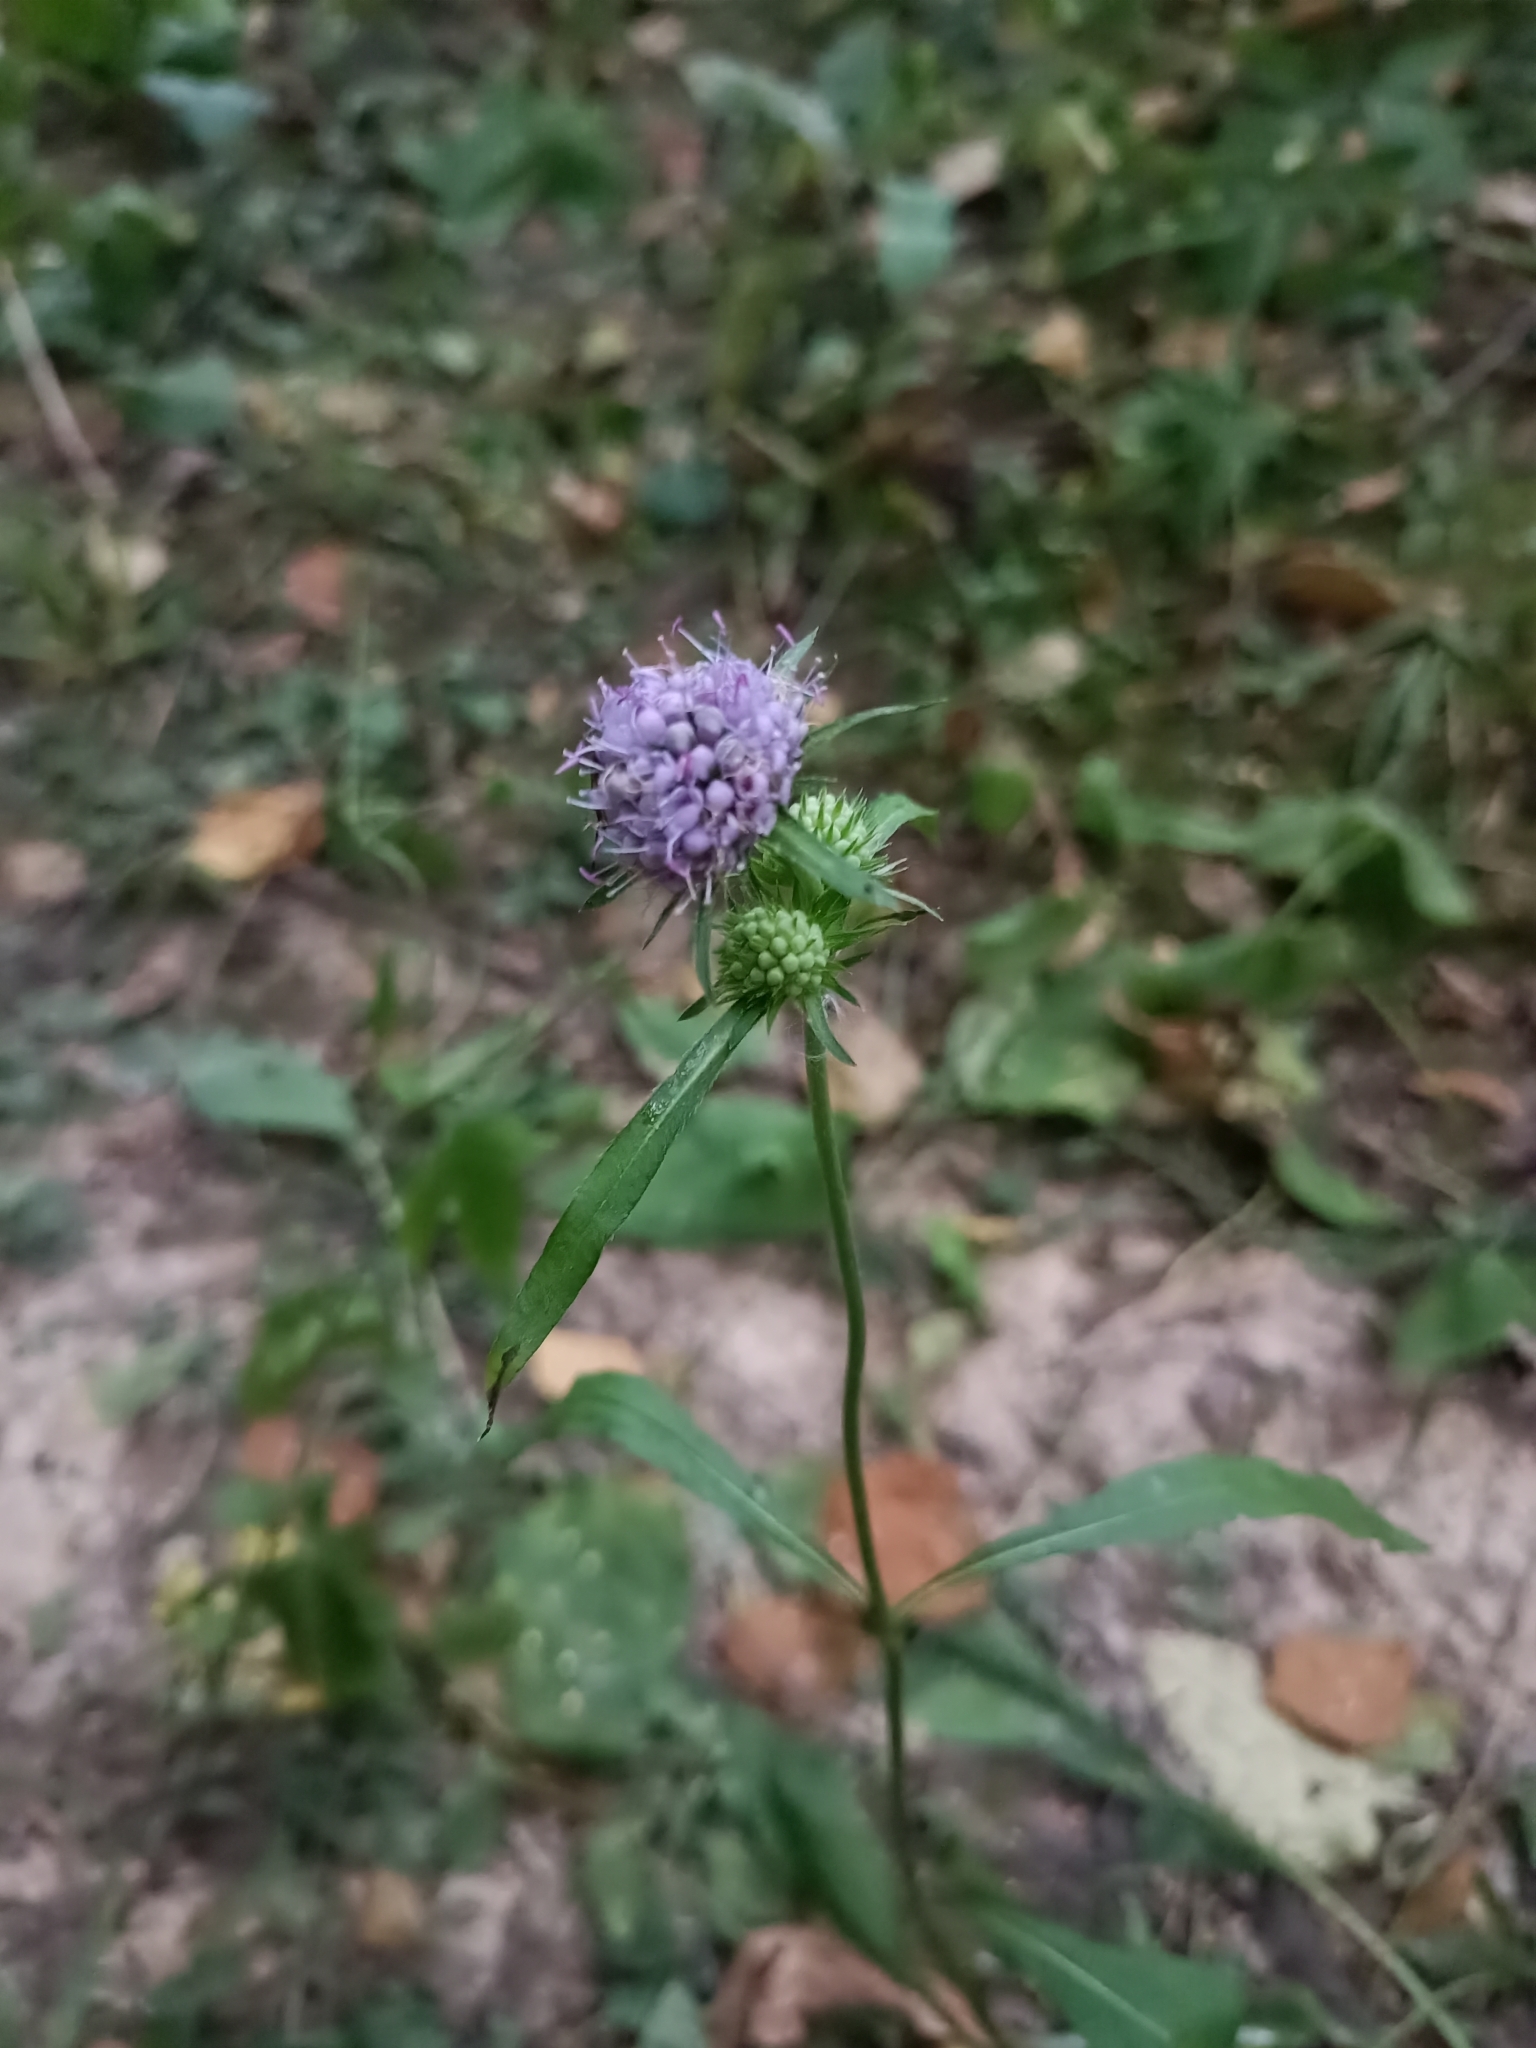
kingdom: Plantae
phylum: Tracheophyta
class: Magnoliopsida
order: Dipsacales
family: Caprifoliaceae
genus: Succisa
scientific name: Succisa pratensis
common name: Devil's-bit
